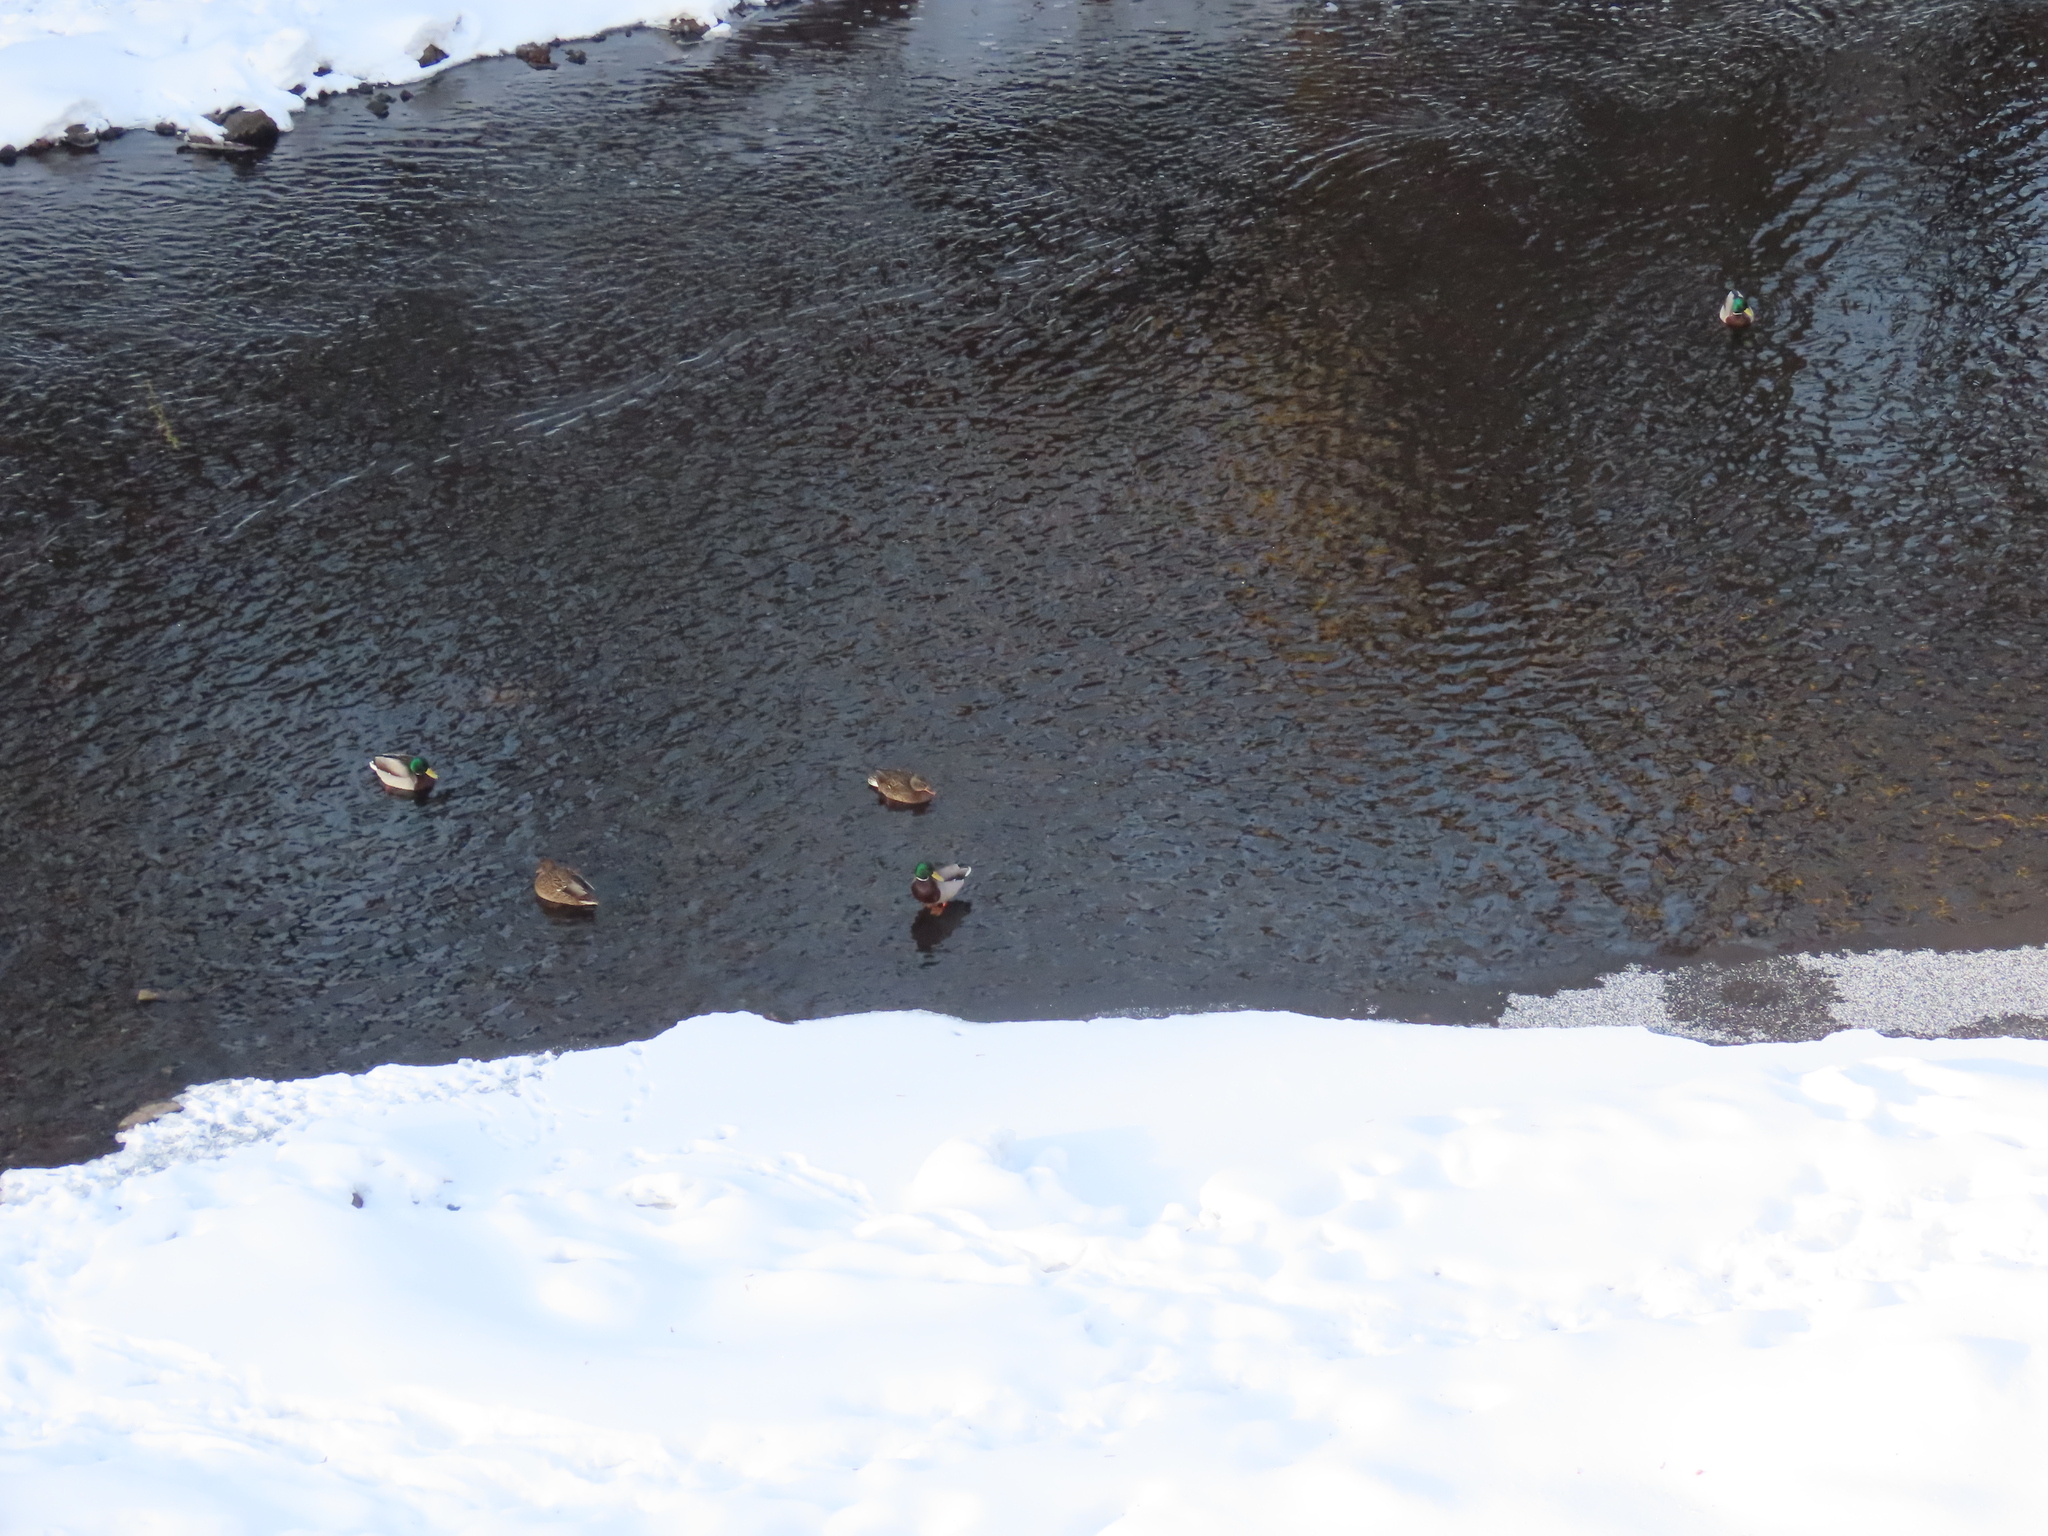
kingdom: Animalia
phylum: Chordata
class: Aves
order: Anseriformes
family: Anatidae
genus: Anas
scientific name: Anas platyrhynchos
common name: Mallard
